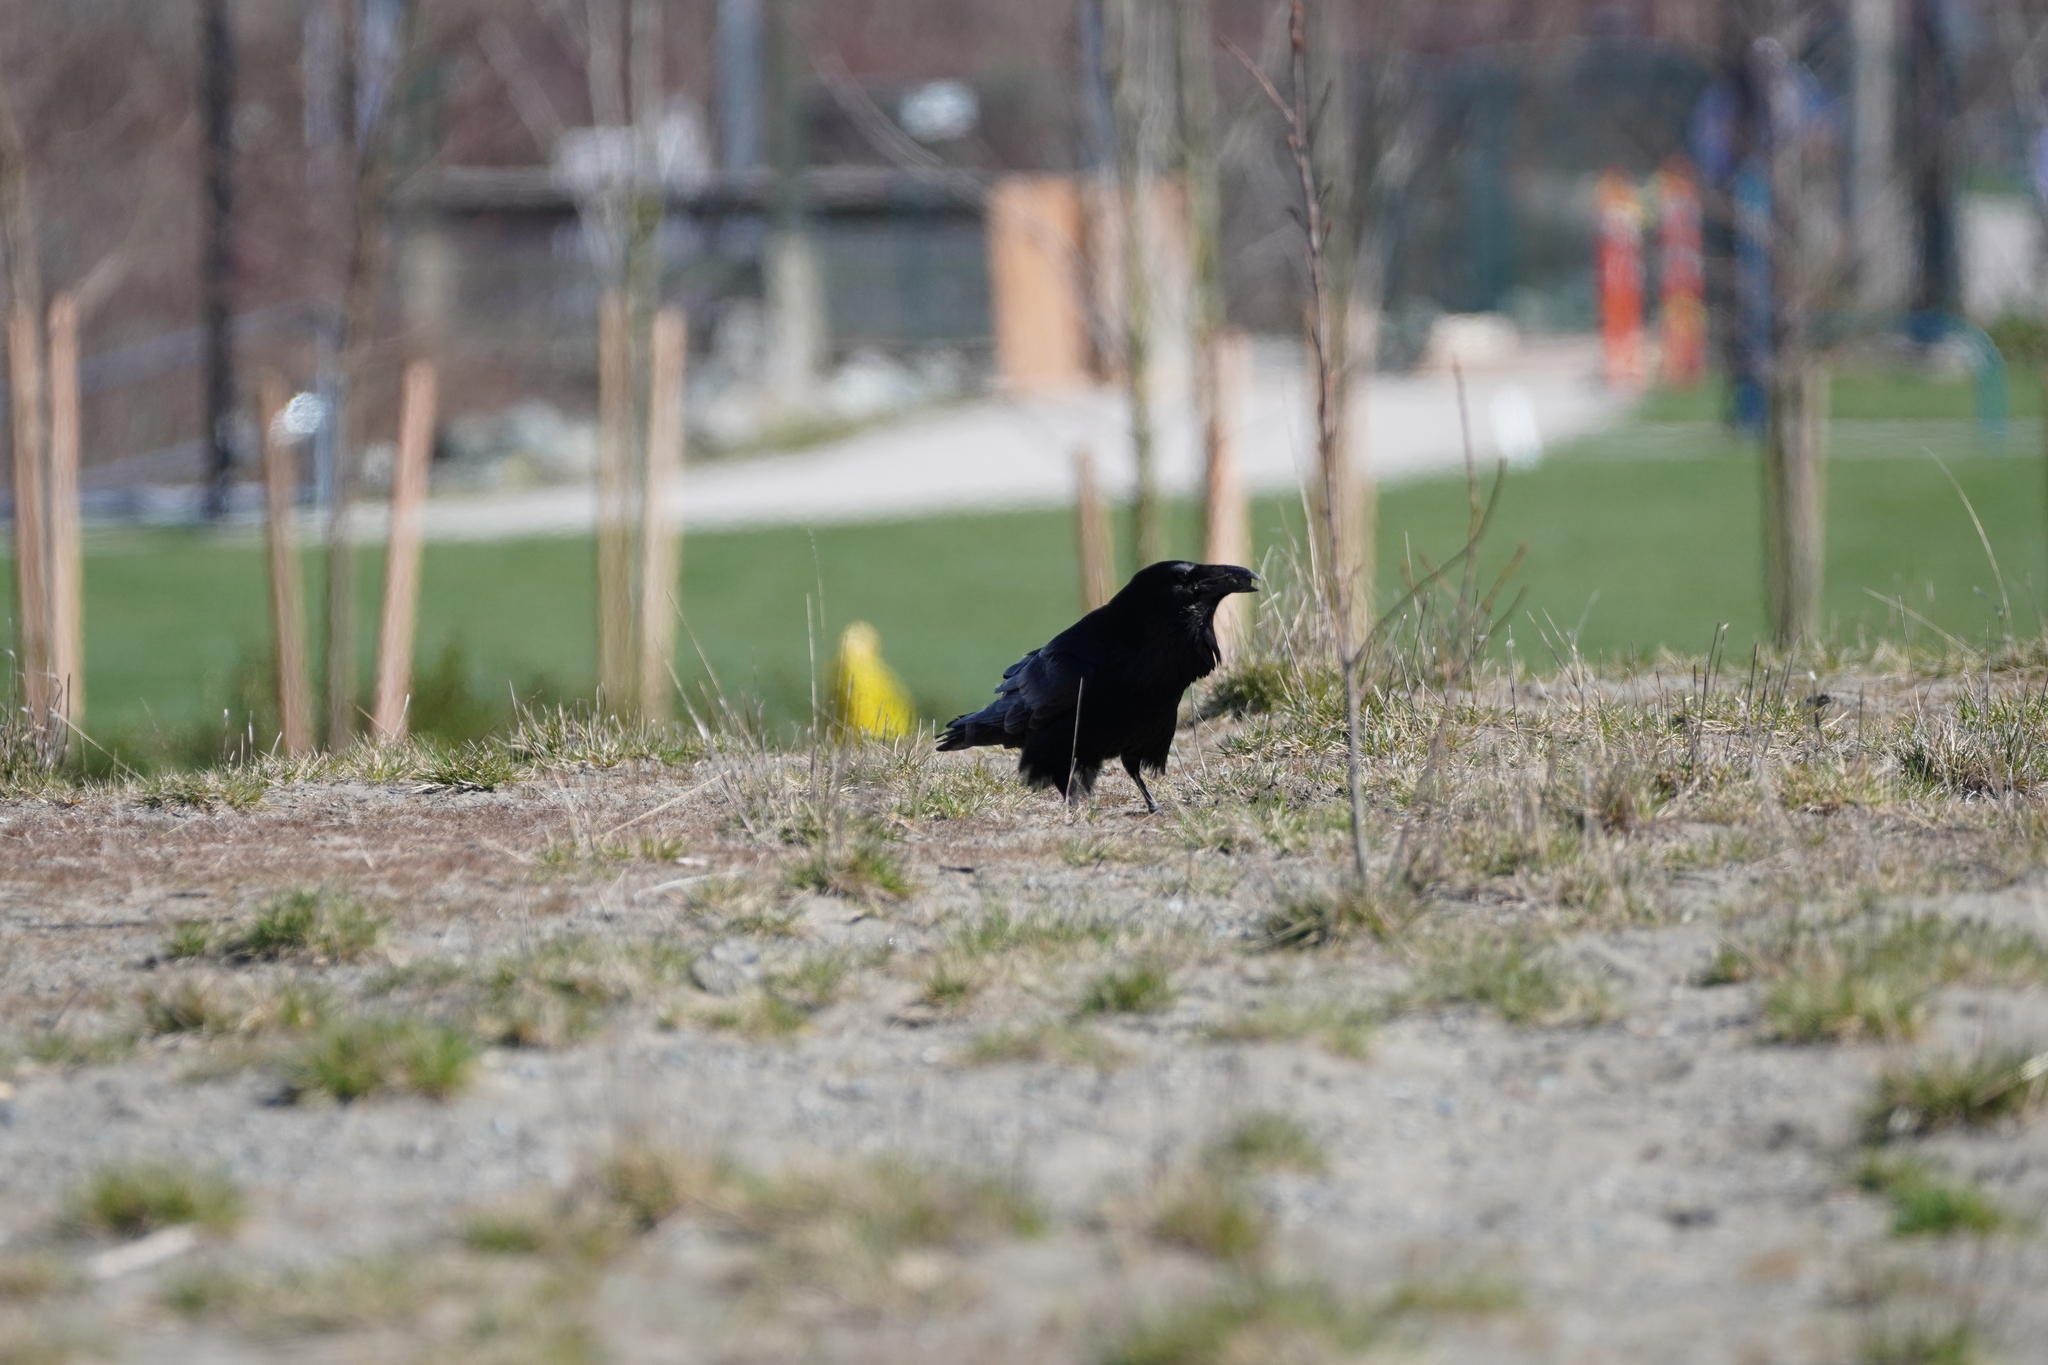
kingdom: Animalia
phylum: Chordata
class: Aves
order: Passeriformes
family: Corvidae
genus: Corvus
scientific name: Corvus corax
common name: Common raven
